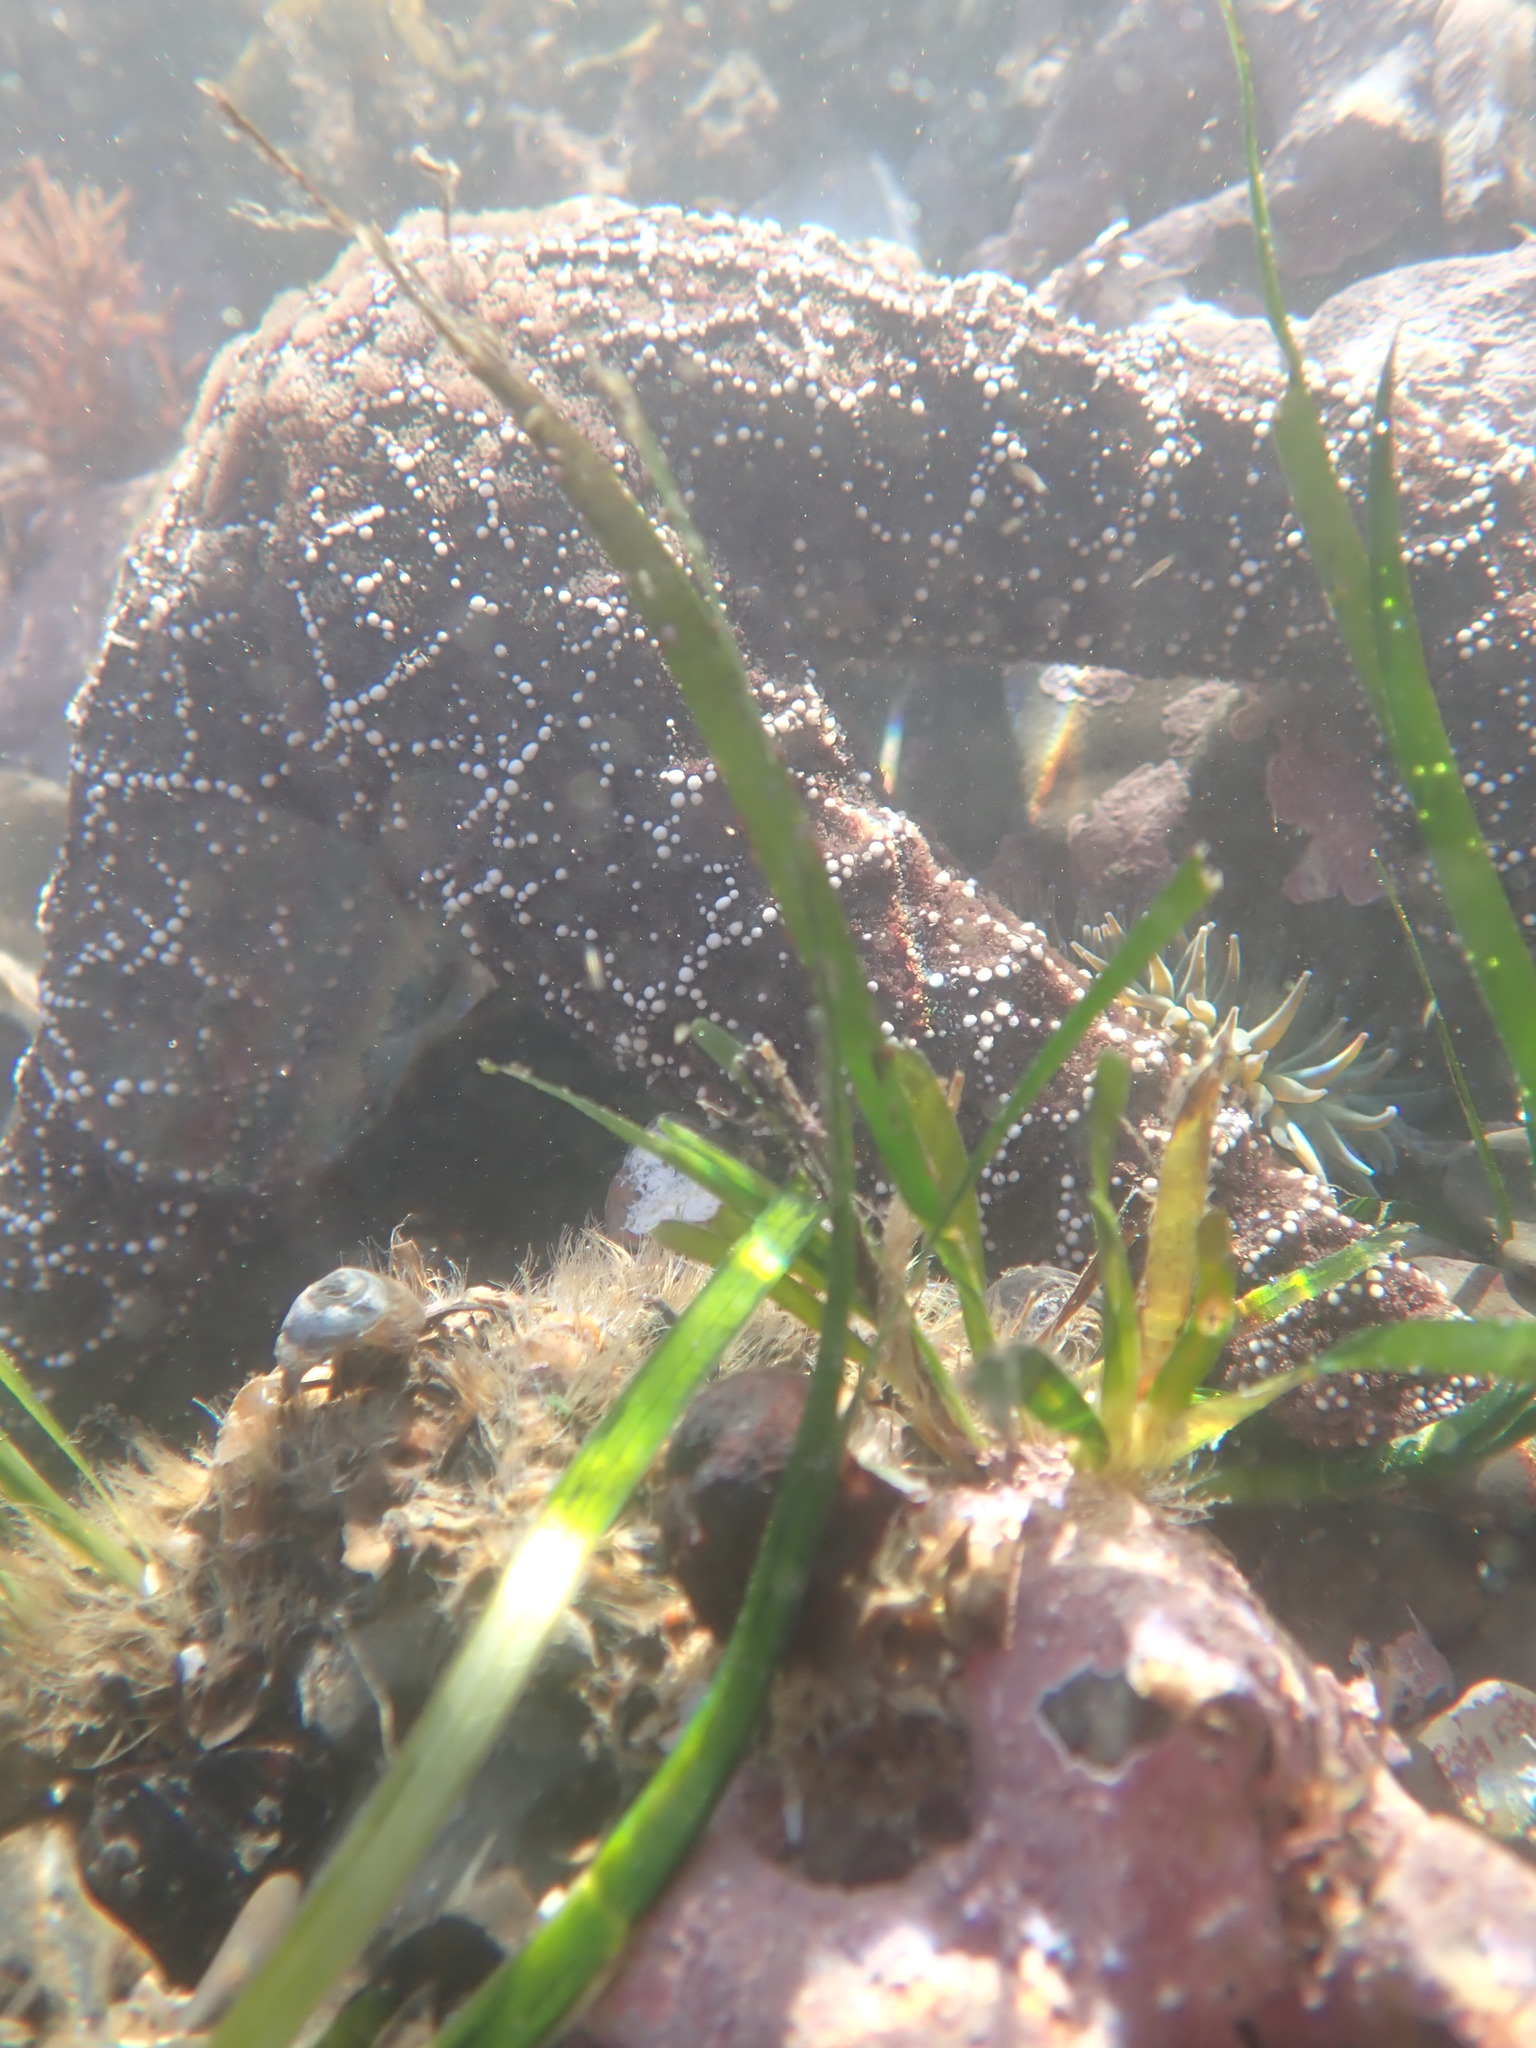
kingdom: Animalia
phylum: Echinodermata
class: Asteroidea
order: Forcipulatida
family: Asteriidae
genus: Pisaster
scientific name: Pisaster ochraceus
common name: Ochre stars
